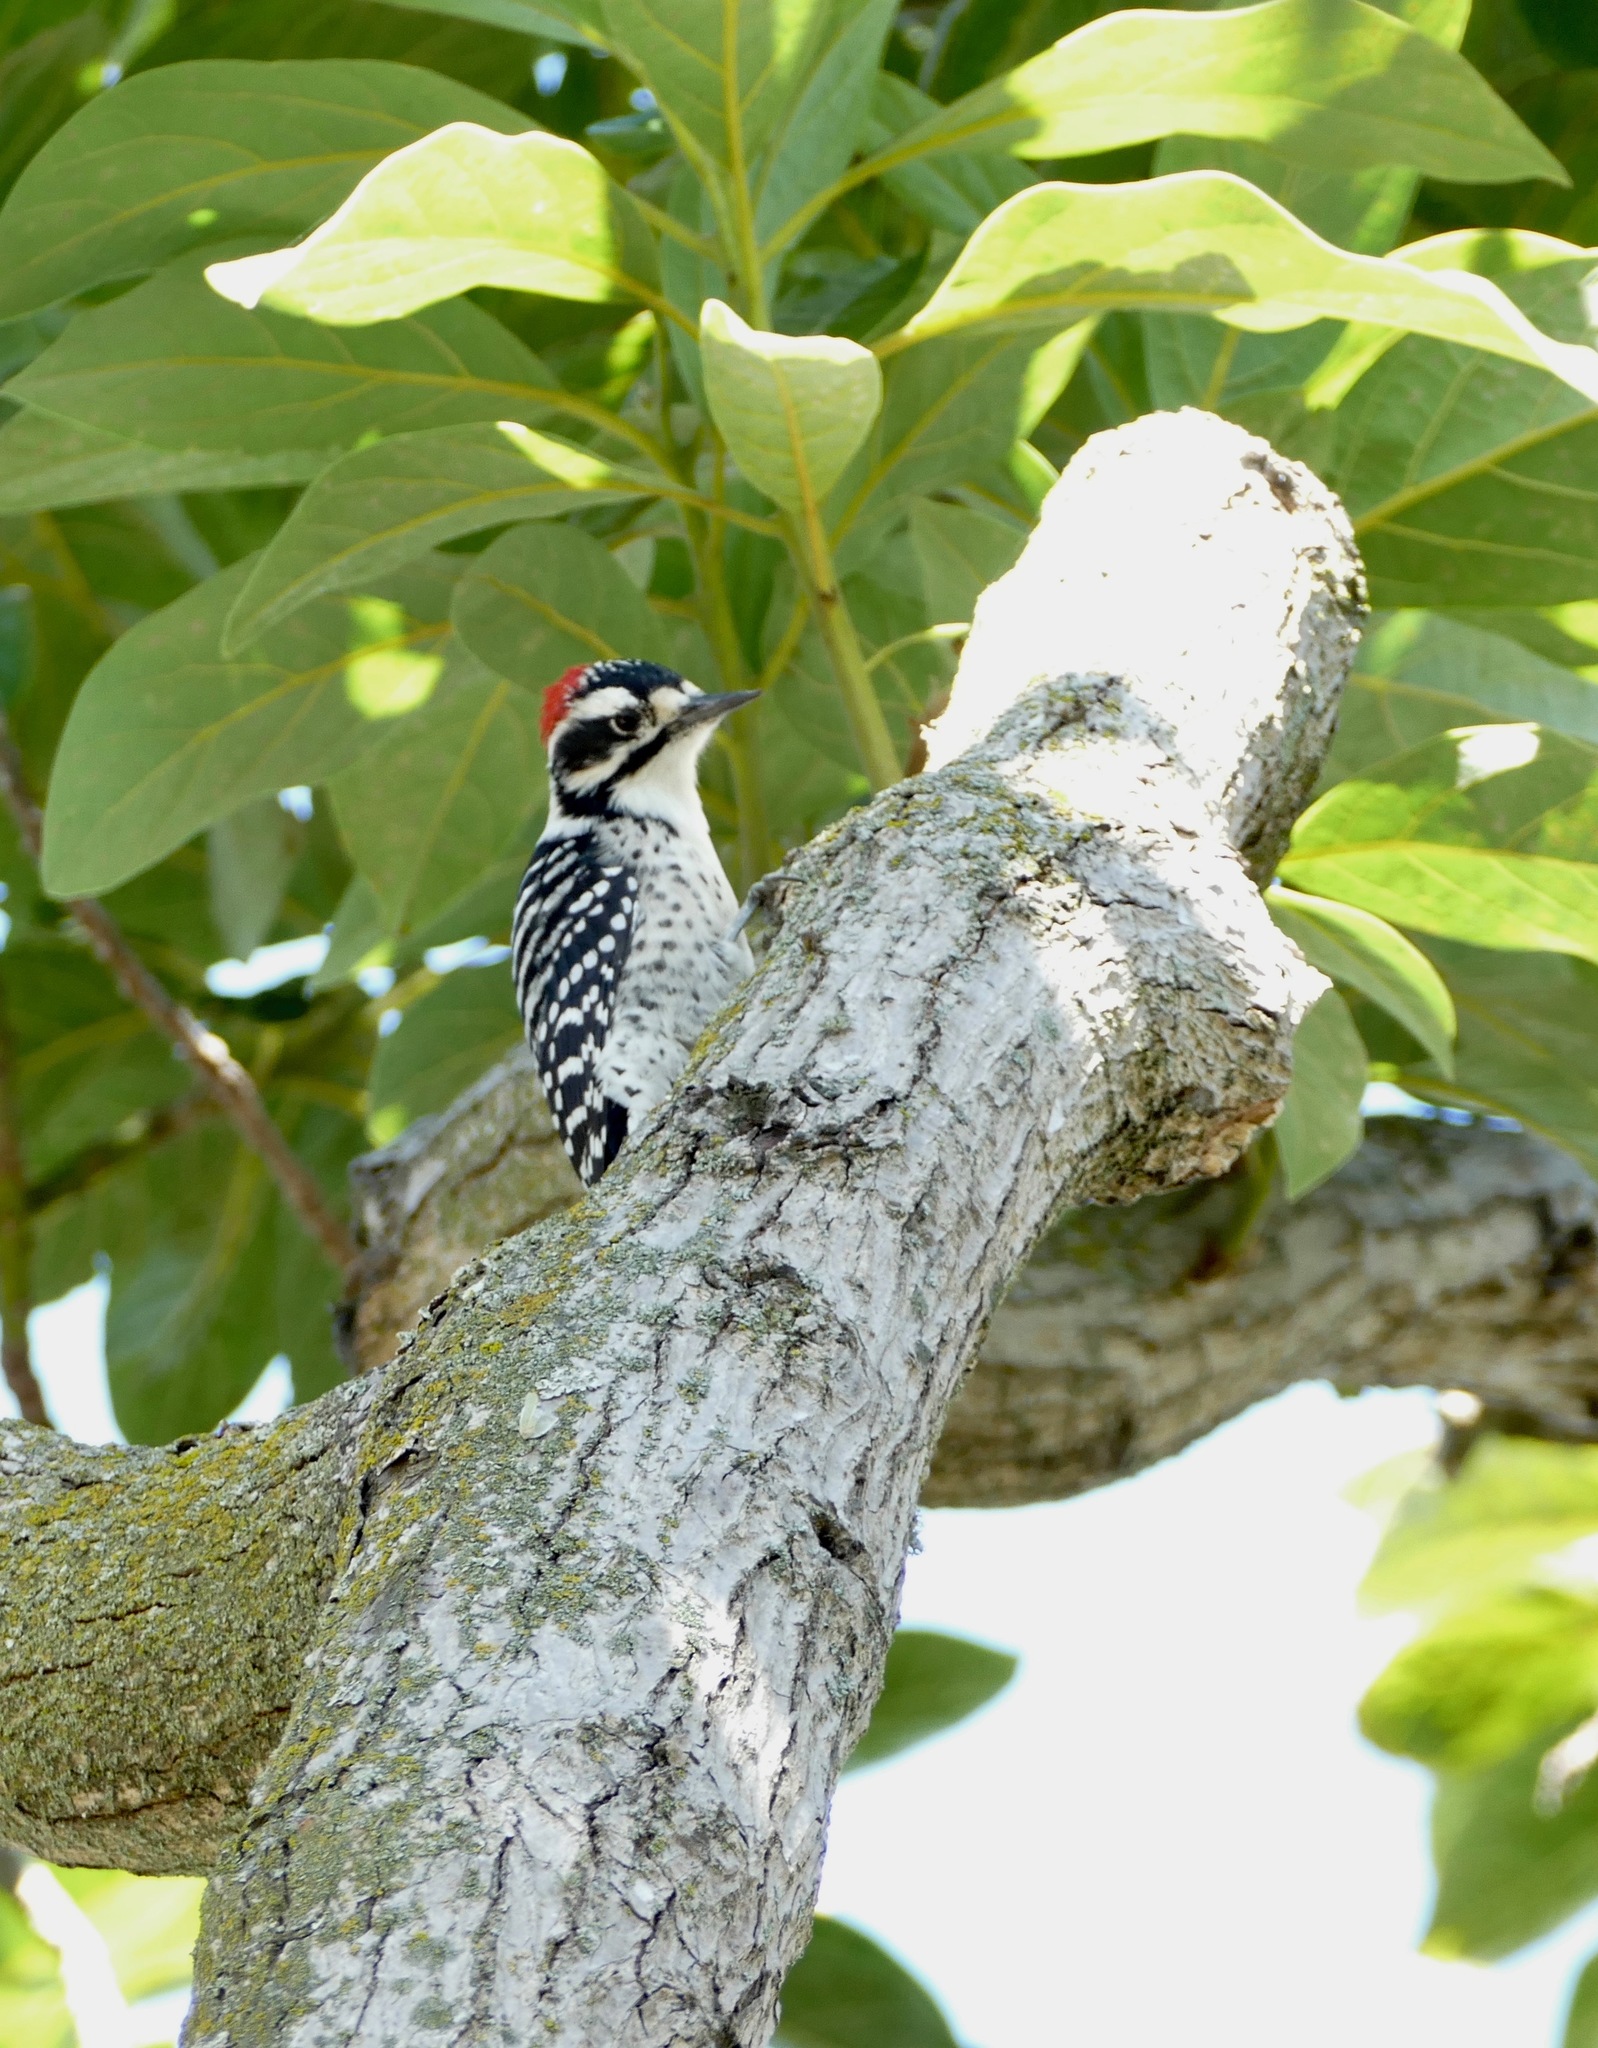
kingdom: Animalia
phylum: Chordata
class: Aves
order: Piciformes
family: Picidae
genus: Dryobates
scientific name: Dryobates nuttallii
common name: Nuttall's woodpecker
